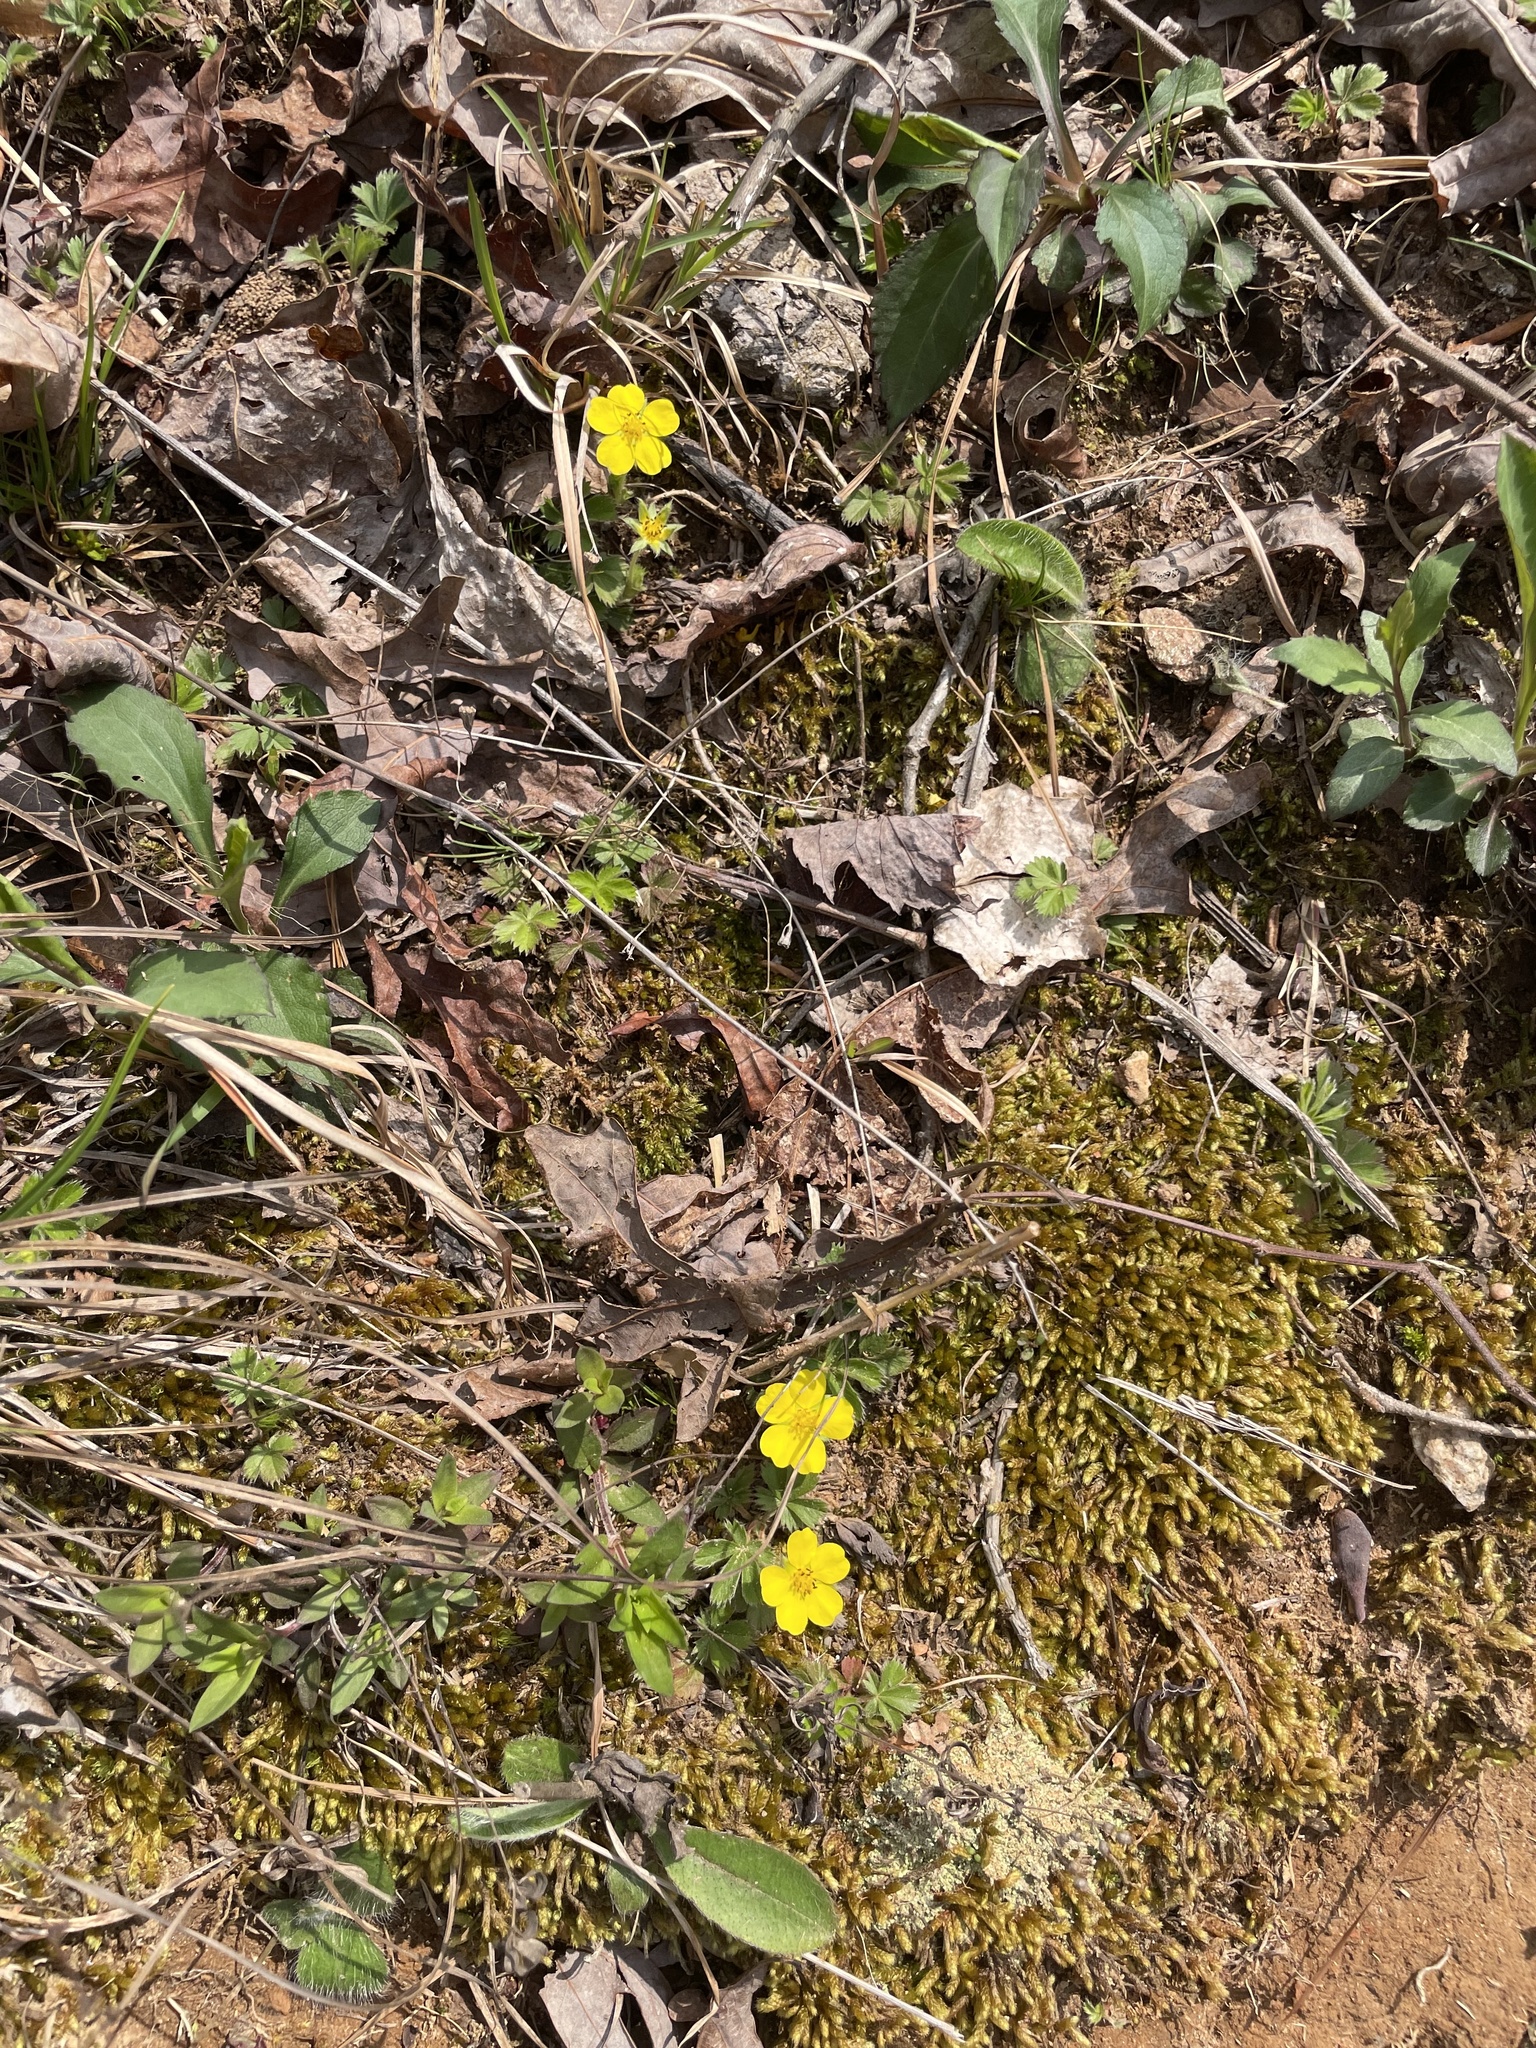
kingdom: Plantae
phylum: Tracheophyta
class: Magnoliopsida
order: Rosales
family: Rosaceae
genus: Potentilla
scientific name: Potentilla canadensis
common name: Canada cinquefoil
